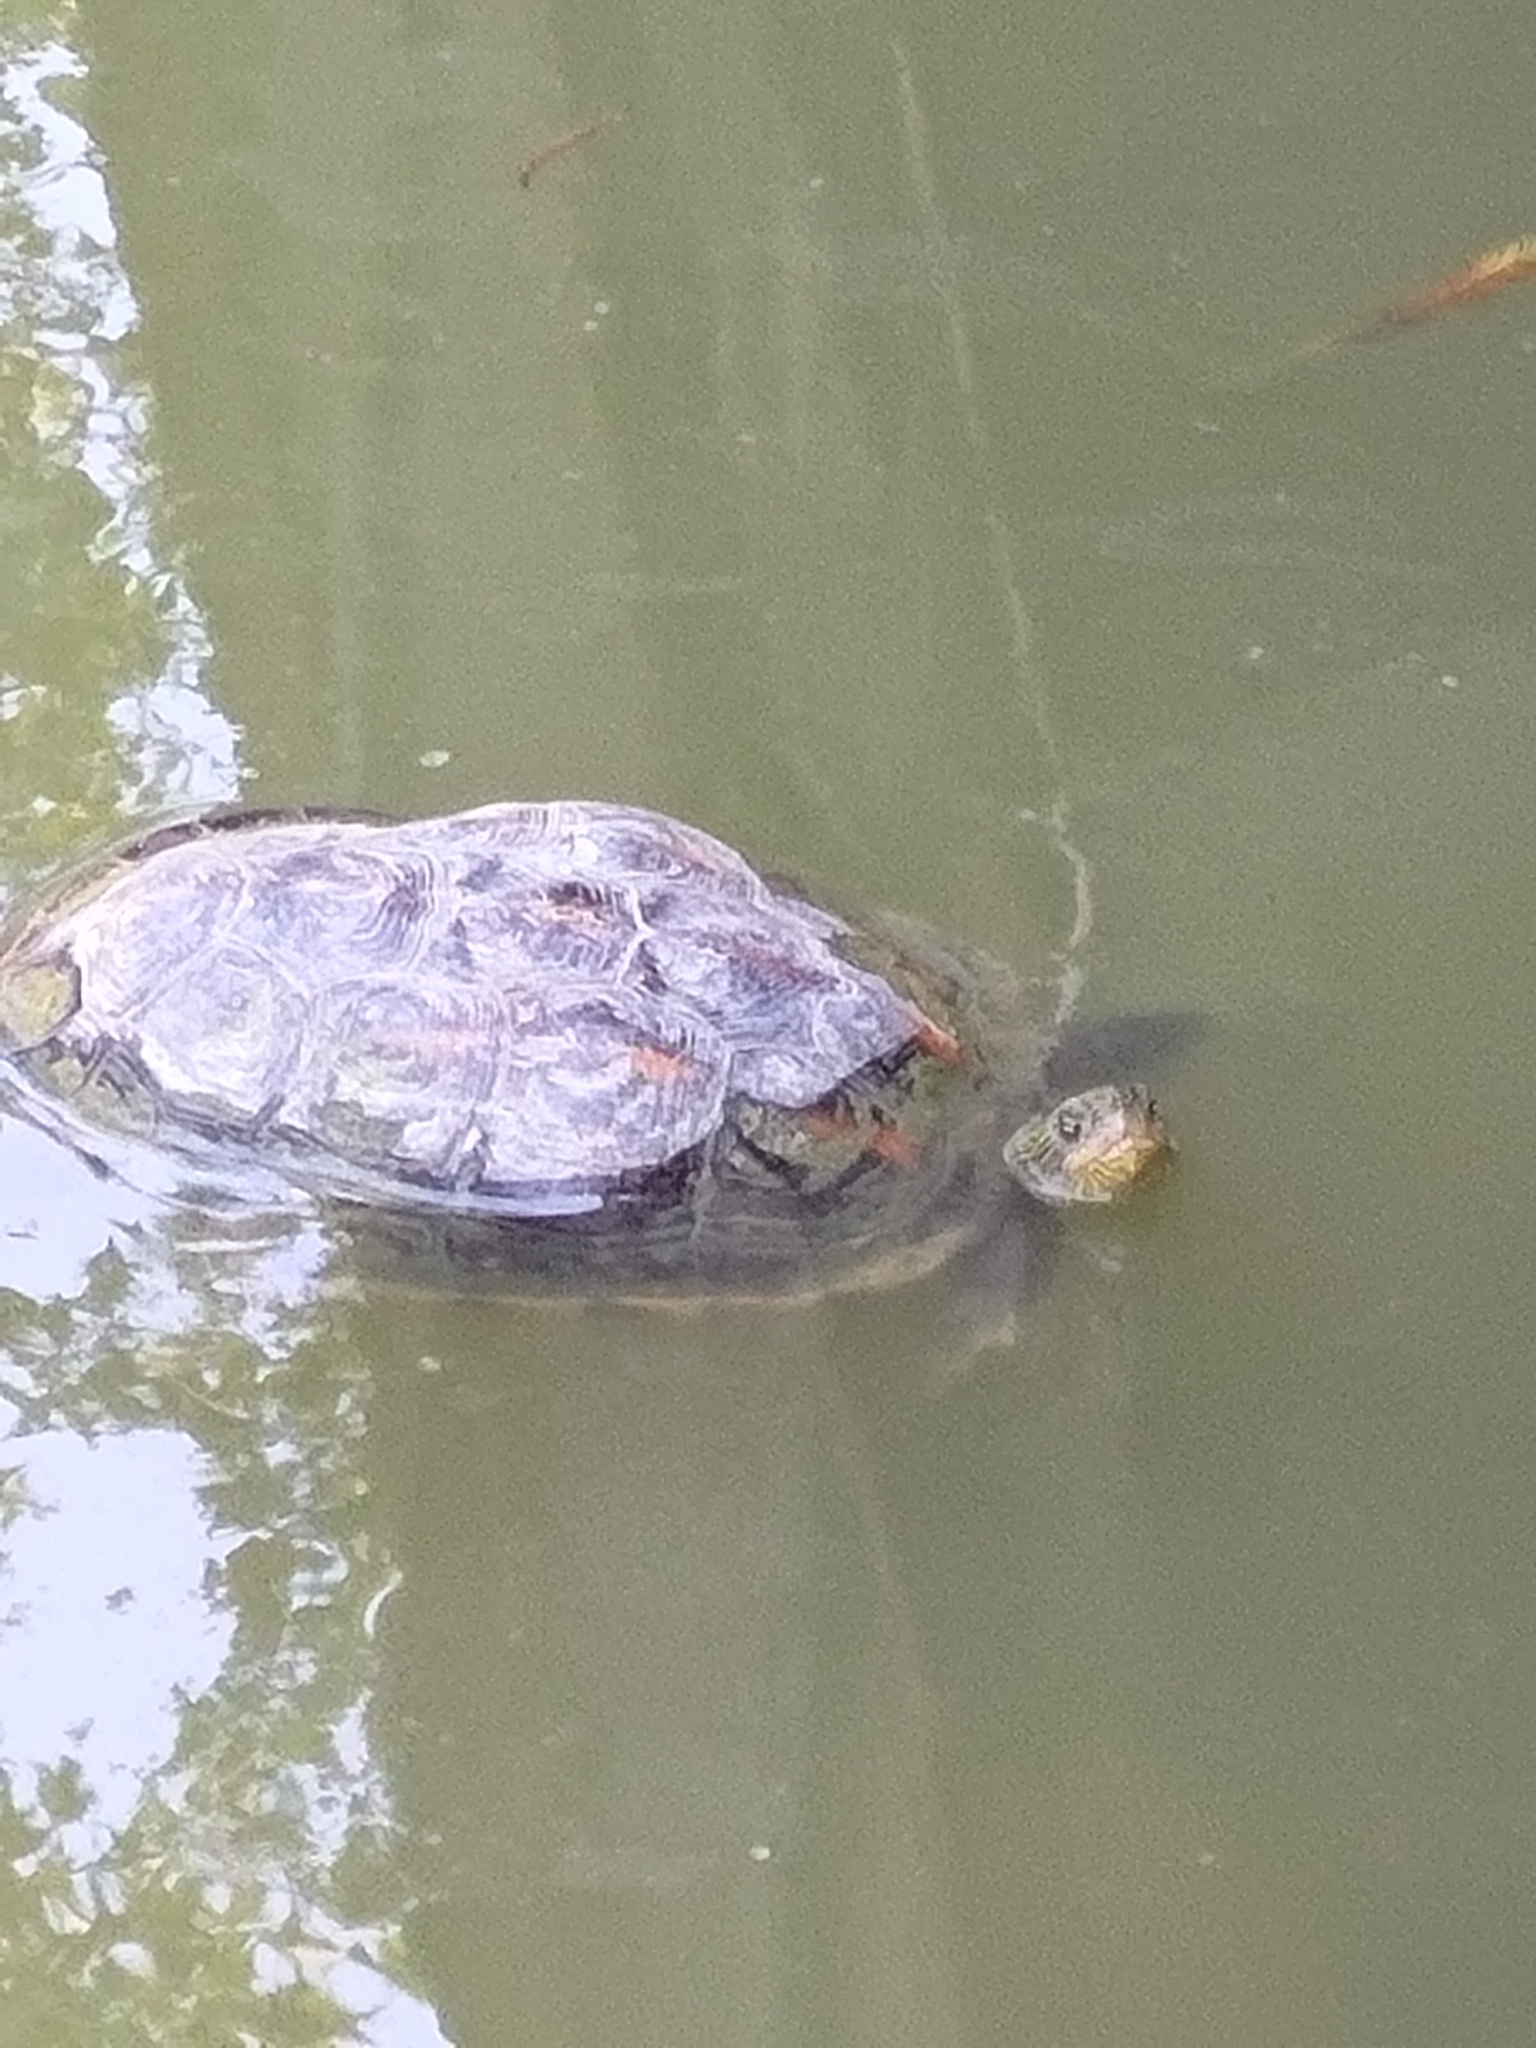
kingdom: Animalia
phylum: Chordata
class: Testudines
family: Geoemydidae
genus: Mauremys
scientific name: Mauremys sinensis
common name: Chinese stripe-necked turtle
